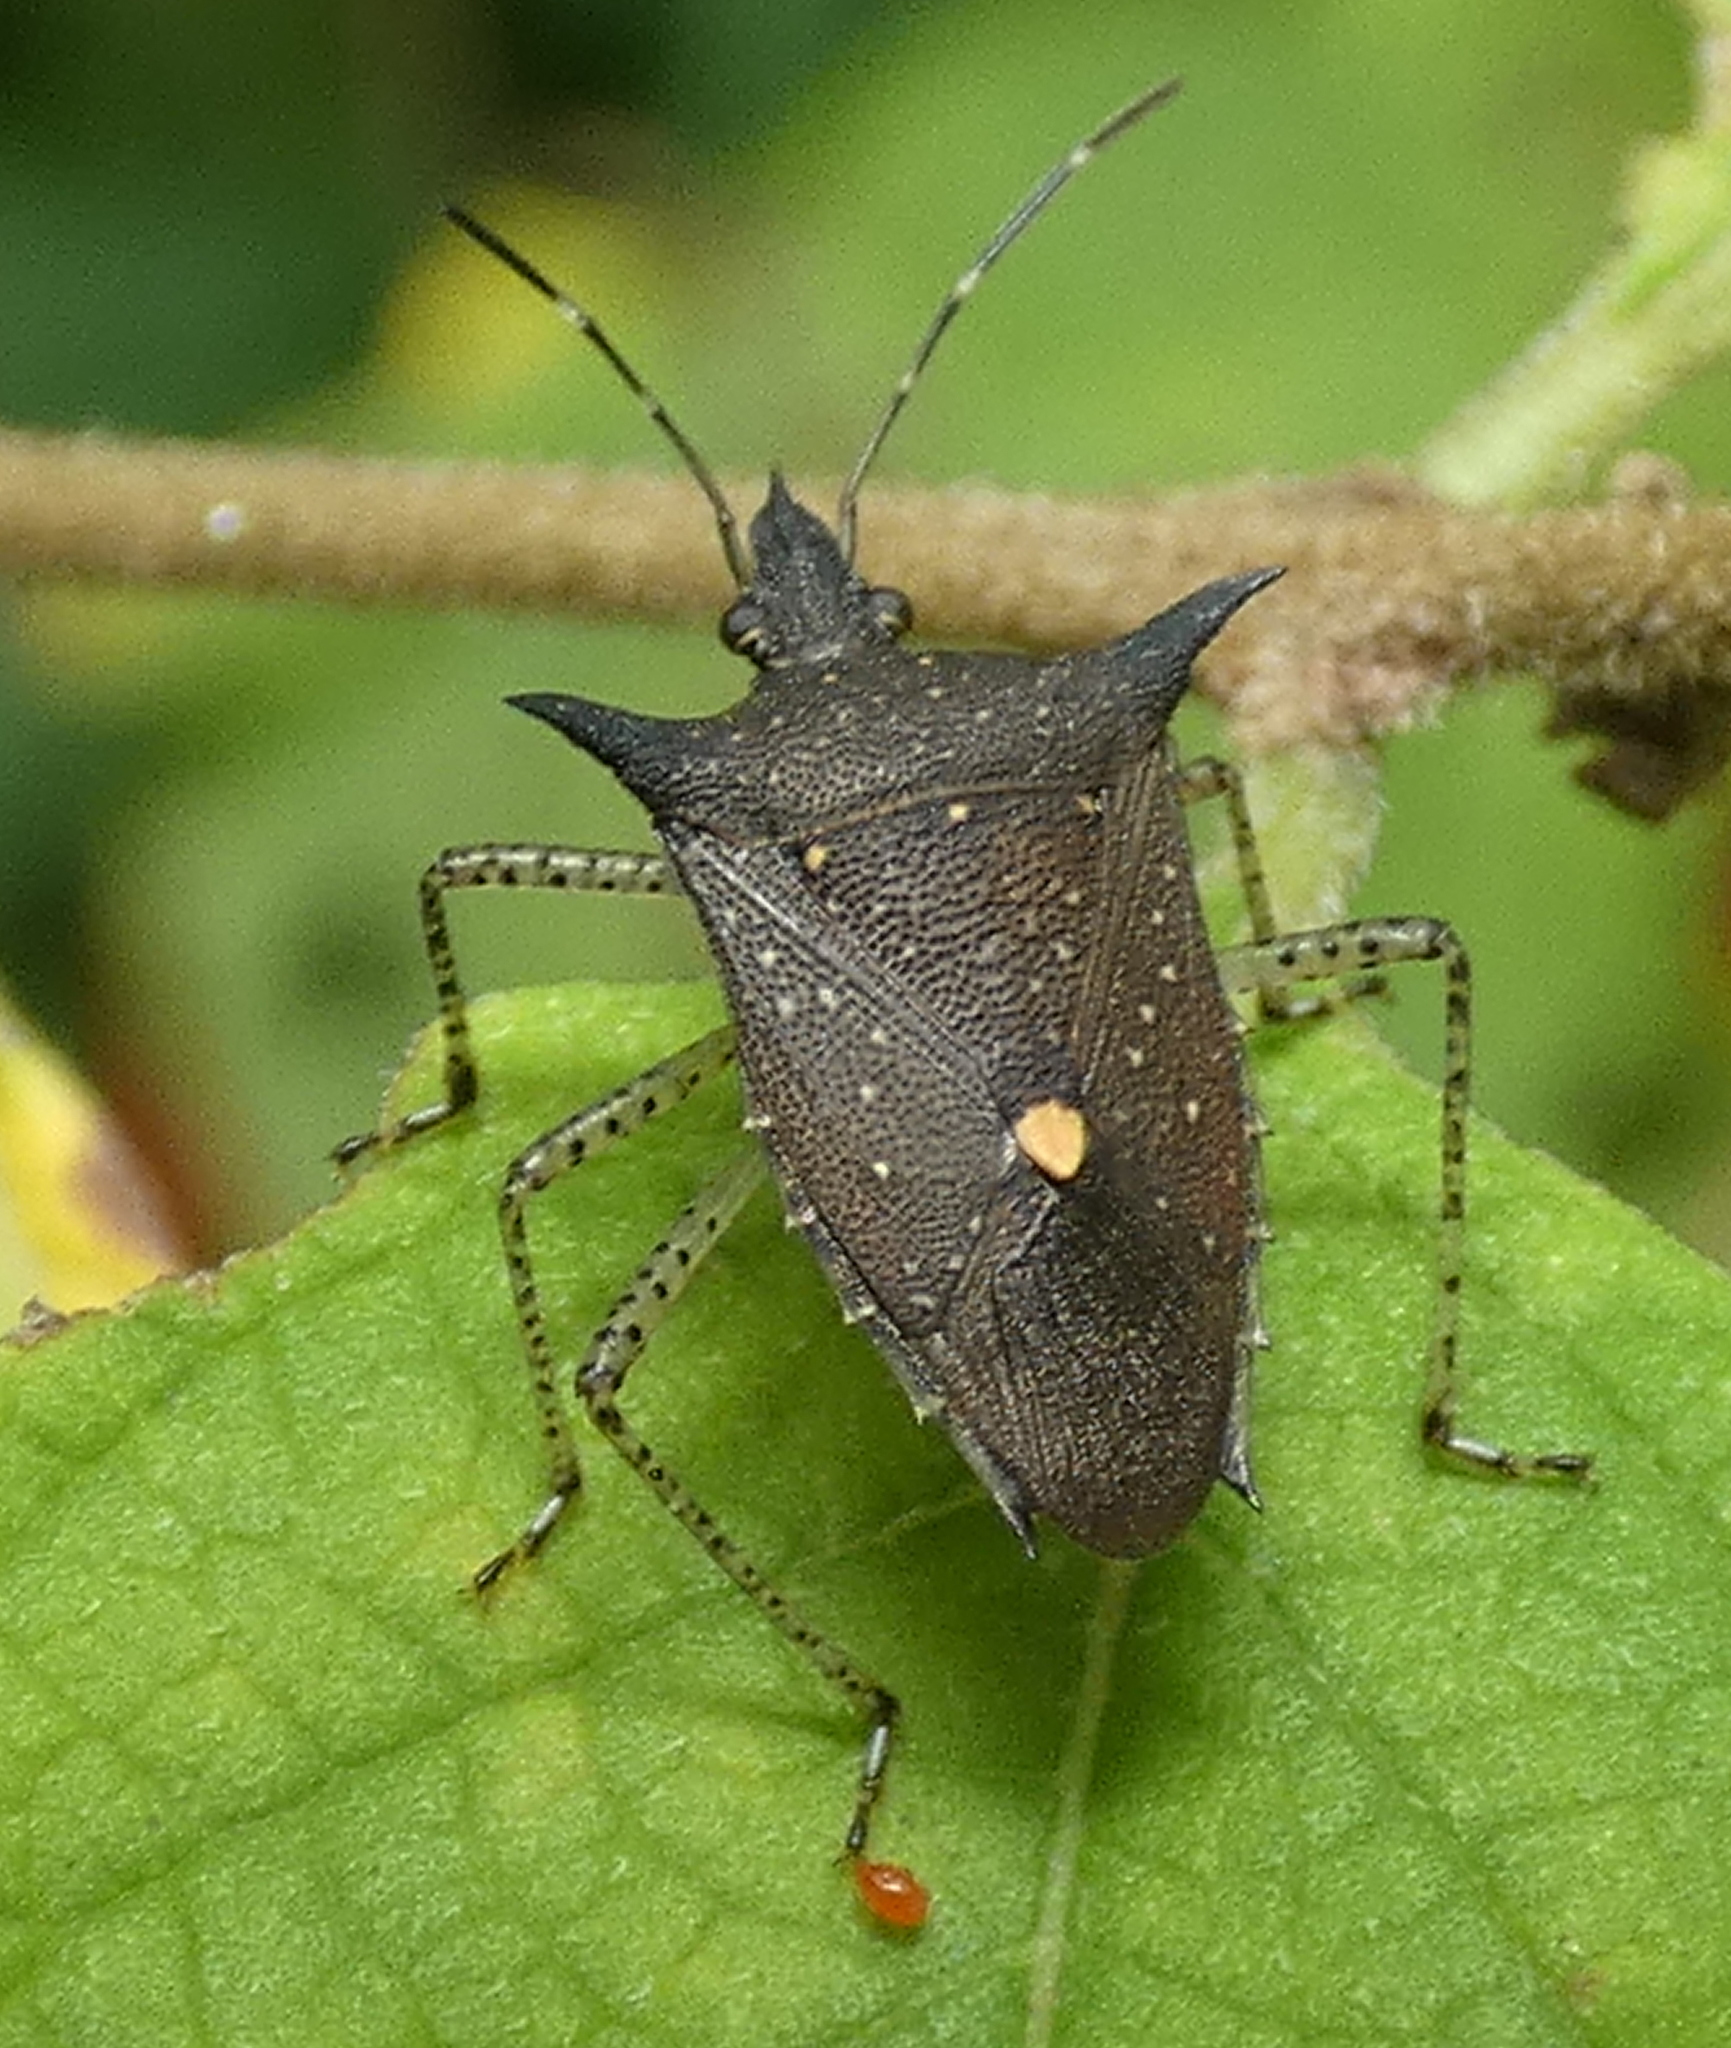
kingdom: Animalia
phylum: Arthropoda
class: Insecta
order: Hemiptera
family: Pentatomidae
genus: Proxys
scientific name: Proxys albopunctulatus
